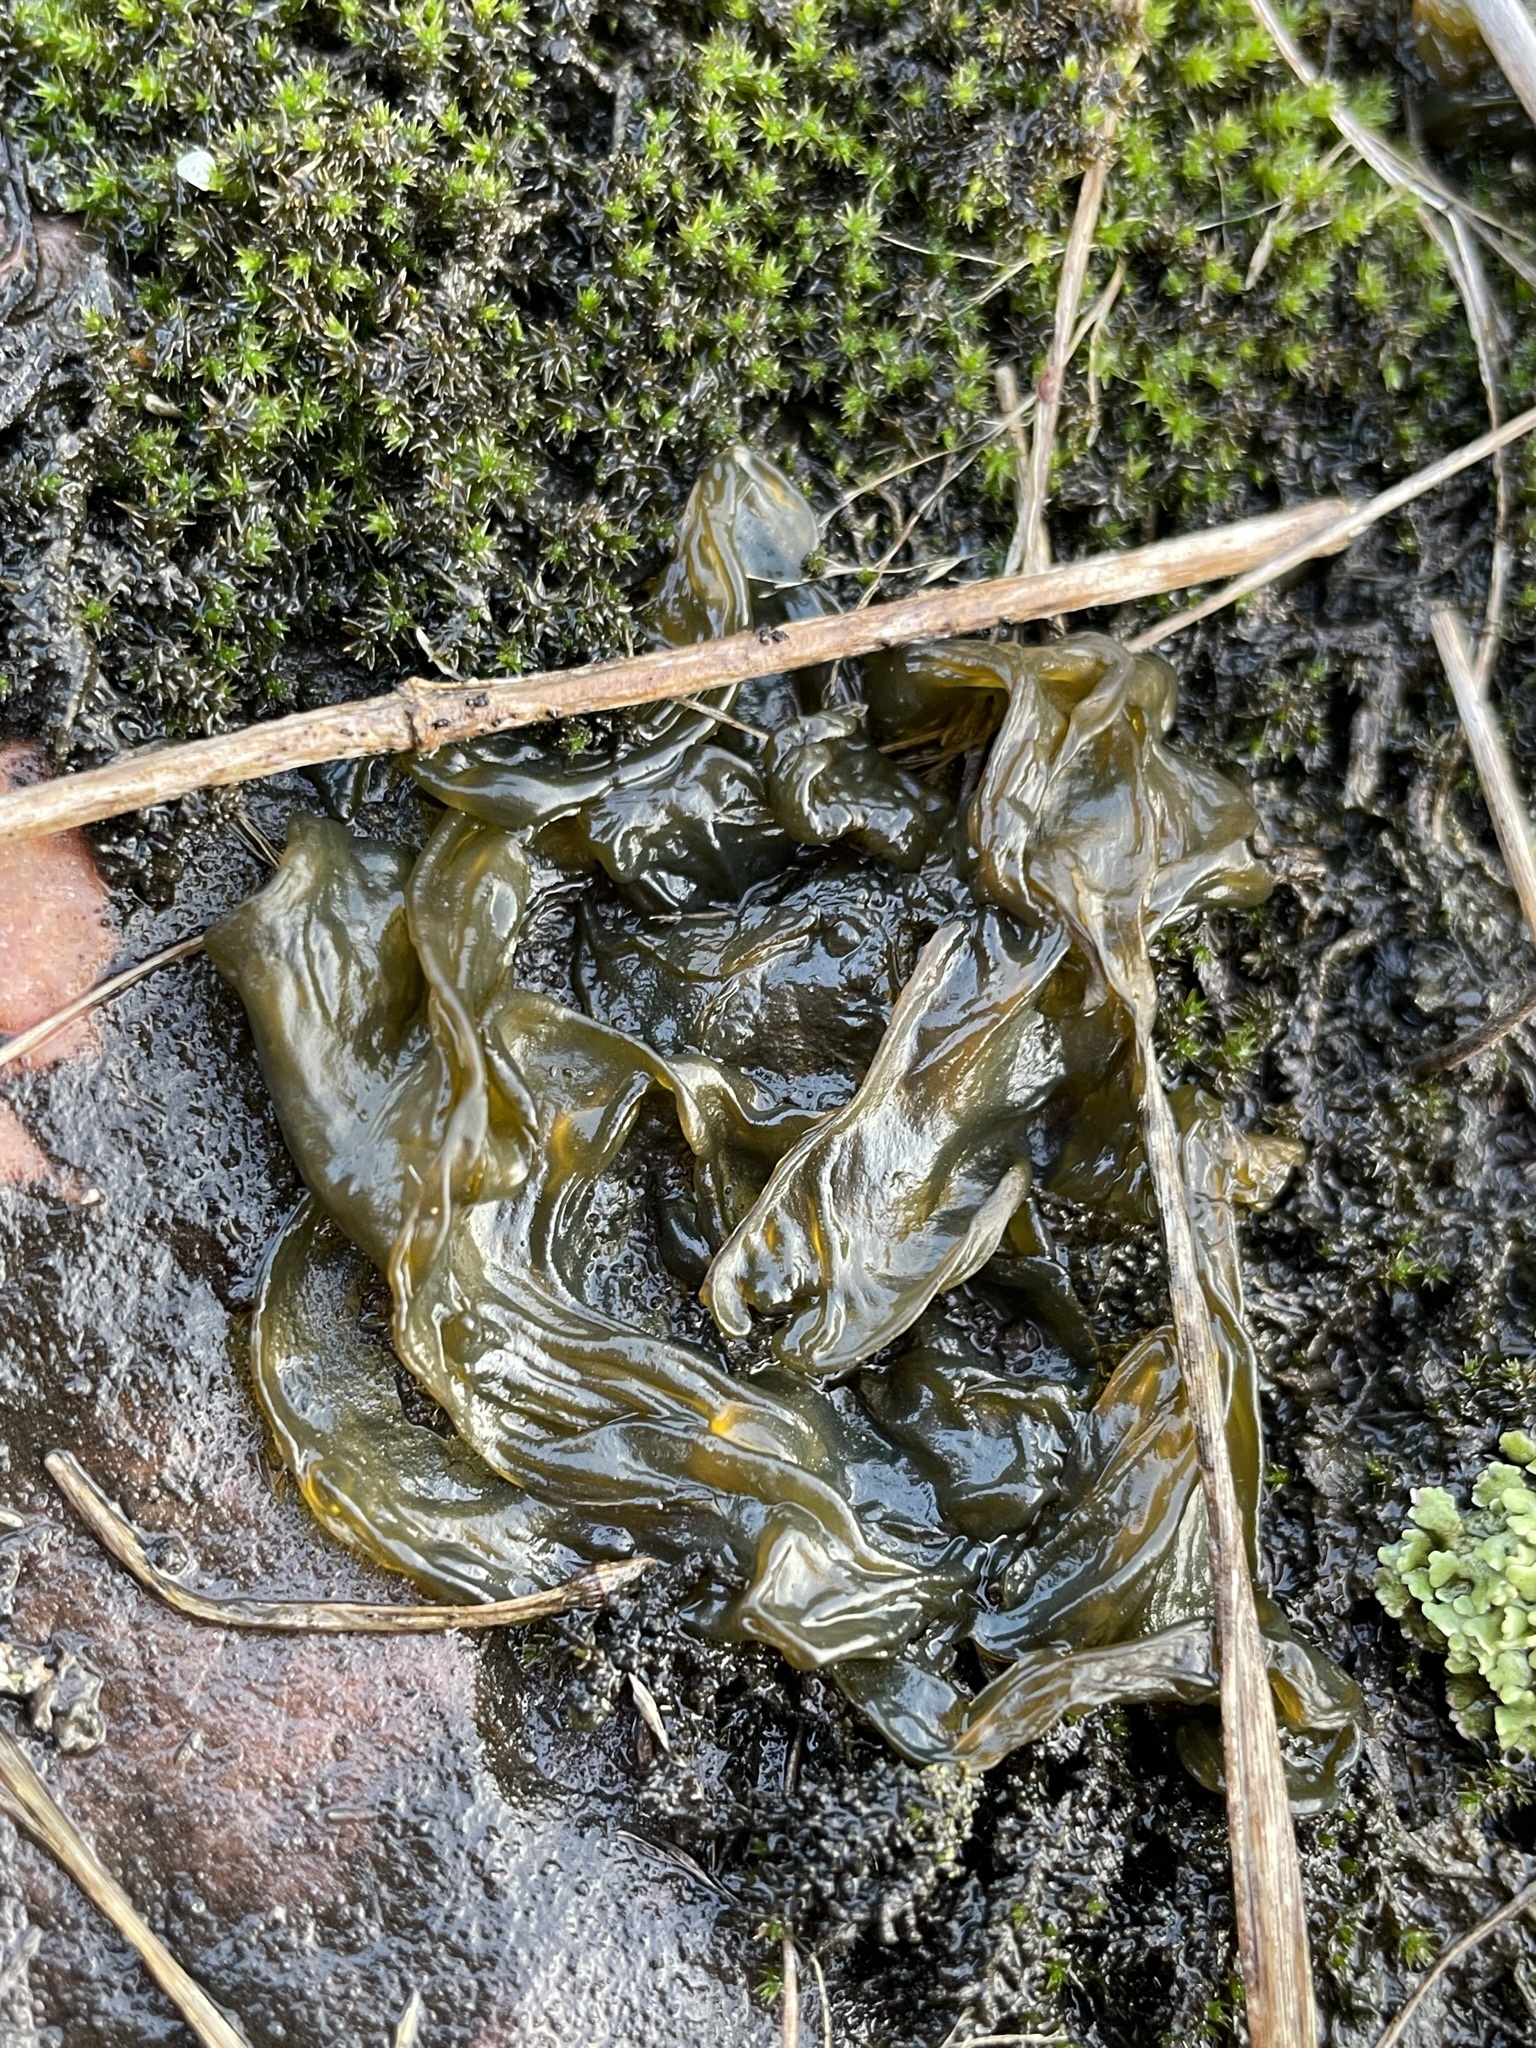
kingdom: Bacteria
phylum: Cyanobacteria
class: Cyanobacteriia
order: Cyanobacteriales
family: Nostocaceae
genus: Nostoc
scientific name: Nostoc commune
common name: Star jelly
